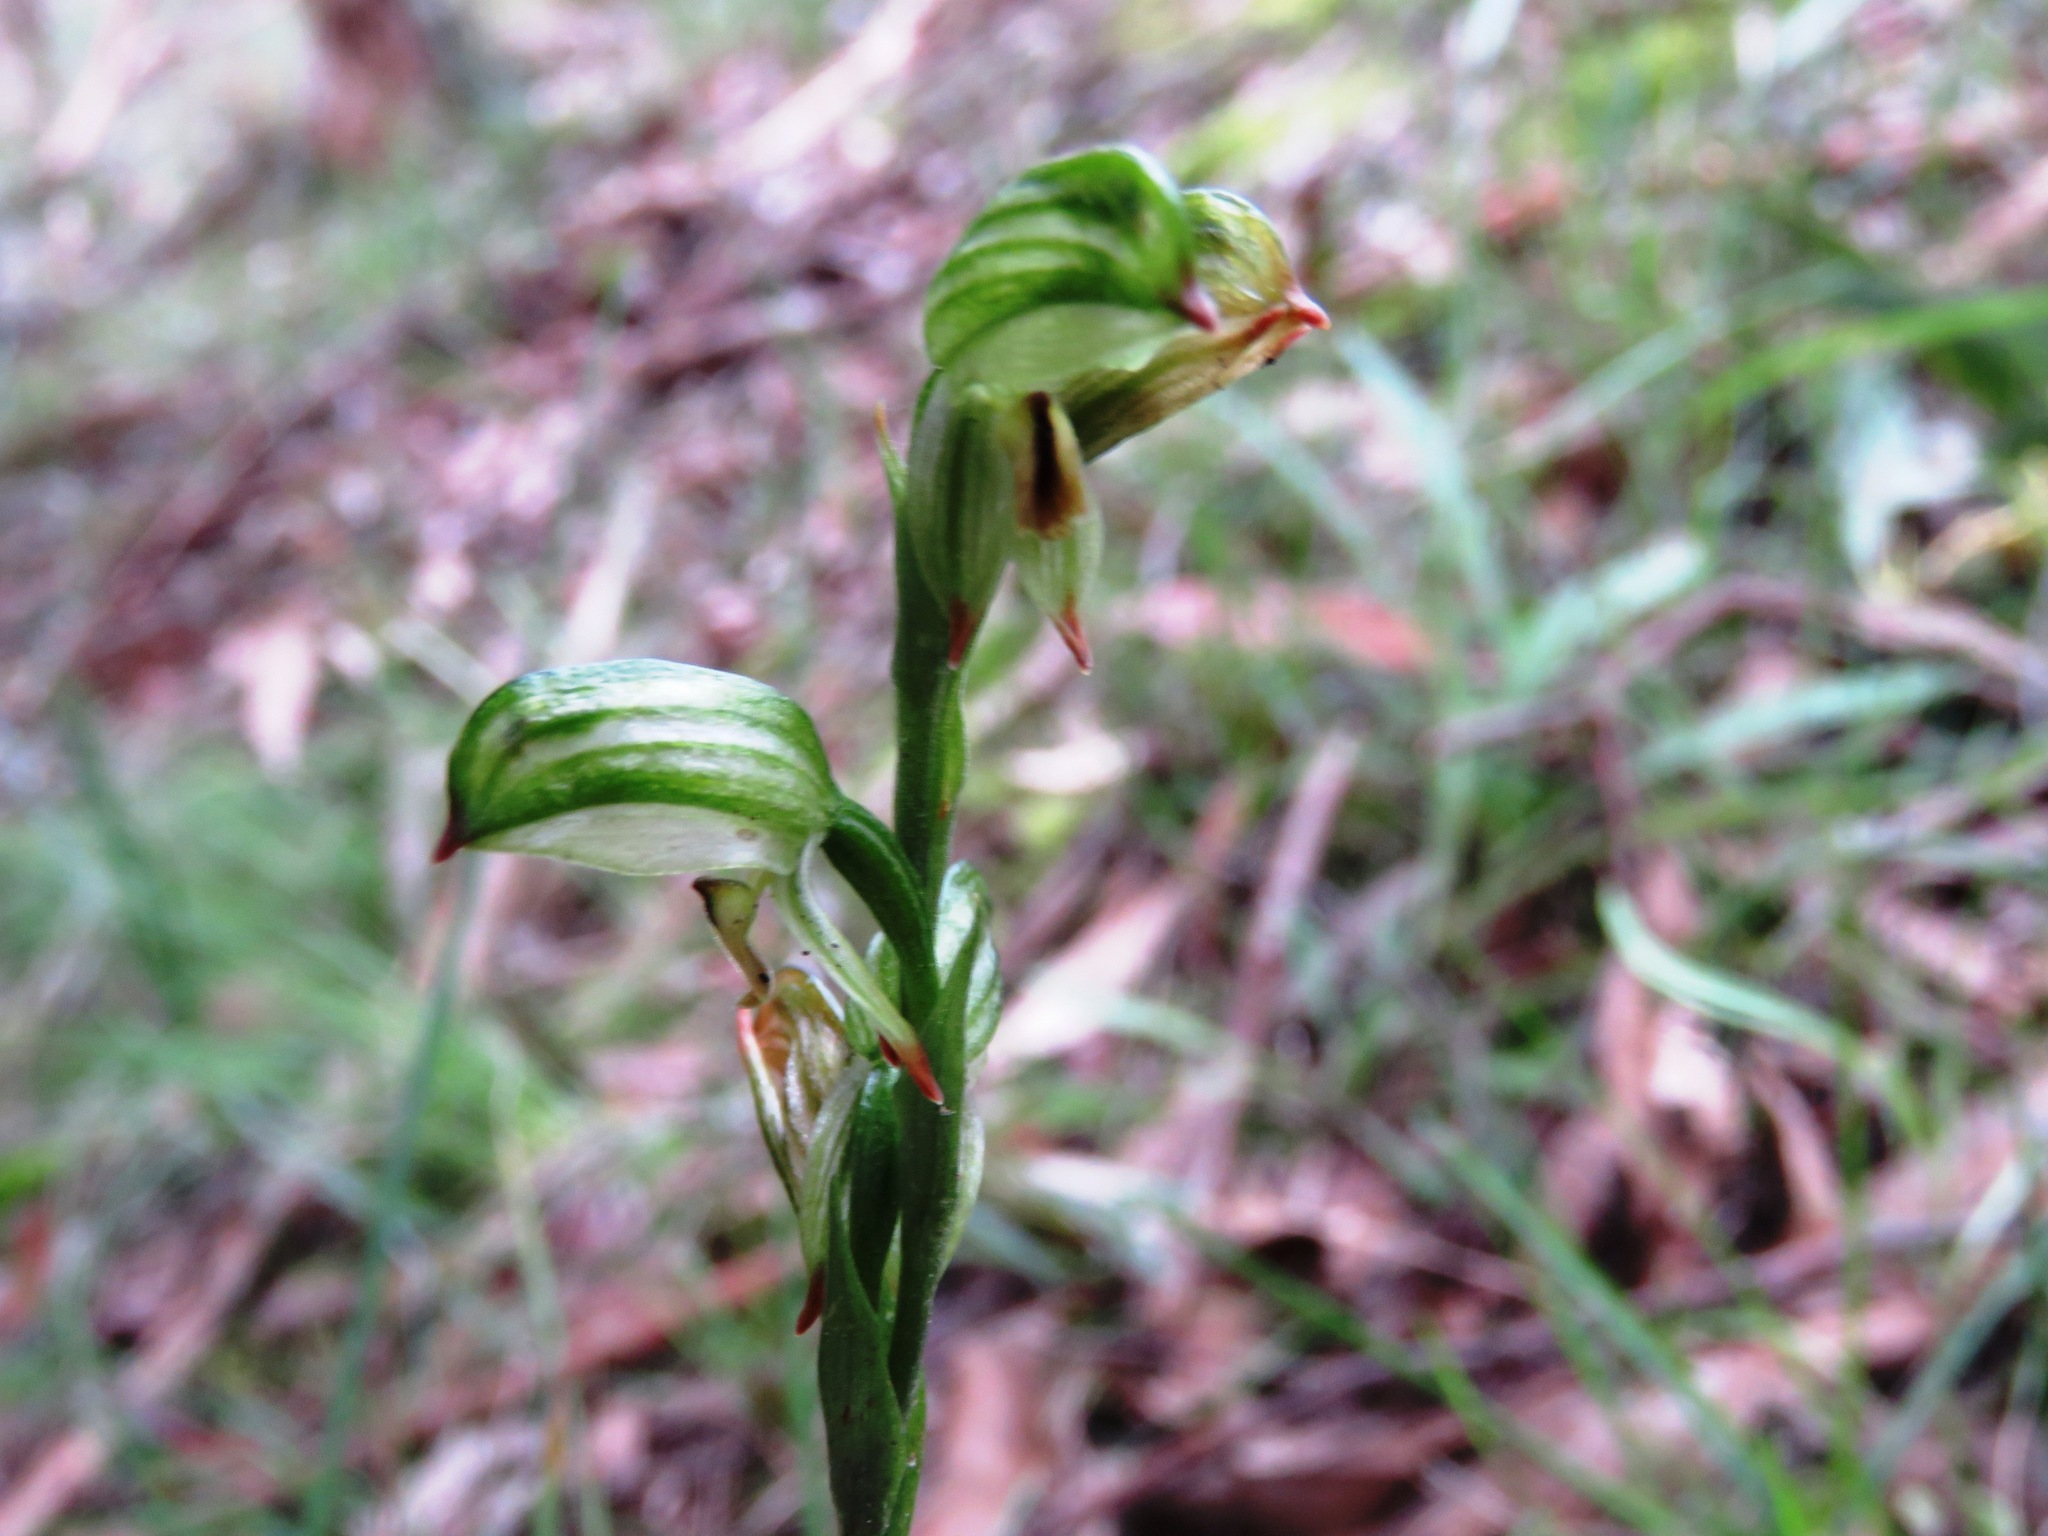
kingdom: Plantae
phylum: Tracheophyta
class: Liliopsida
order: Asparagales
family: Orchidaceae
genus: Pterostylis
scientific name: Pterostylis melagramma
